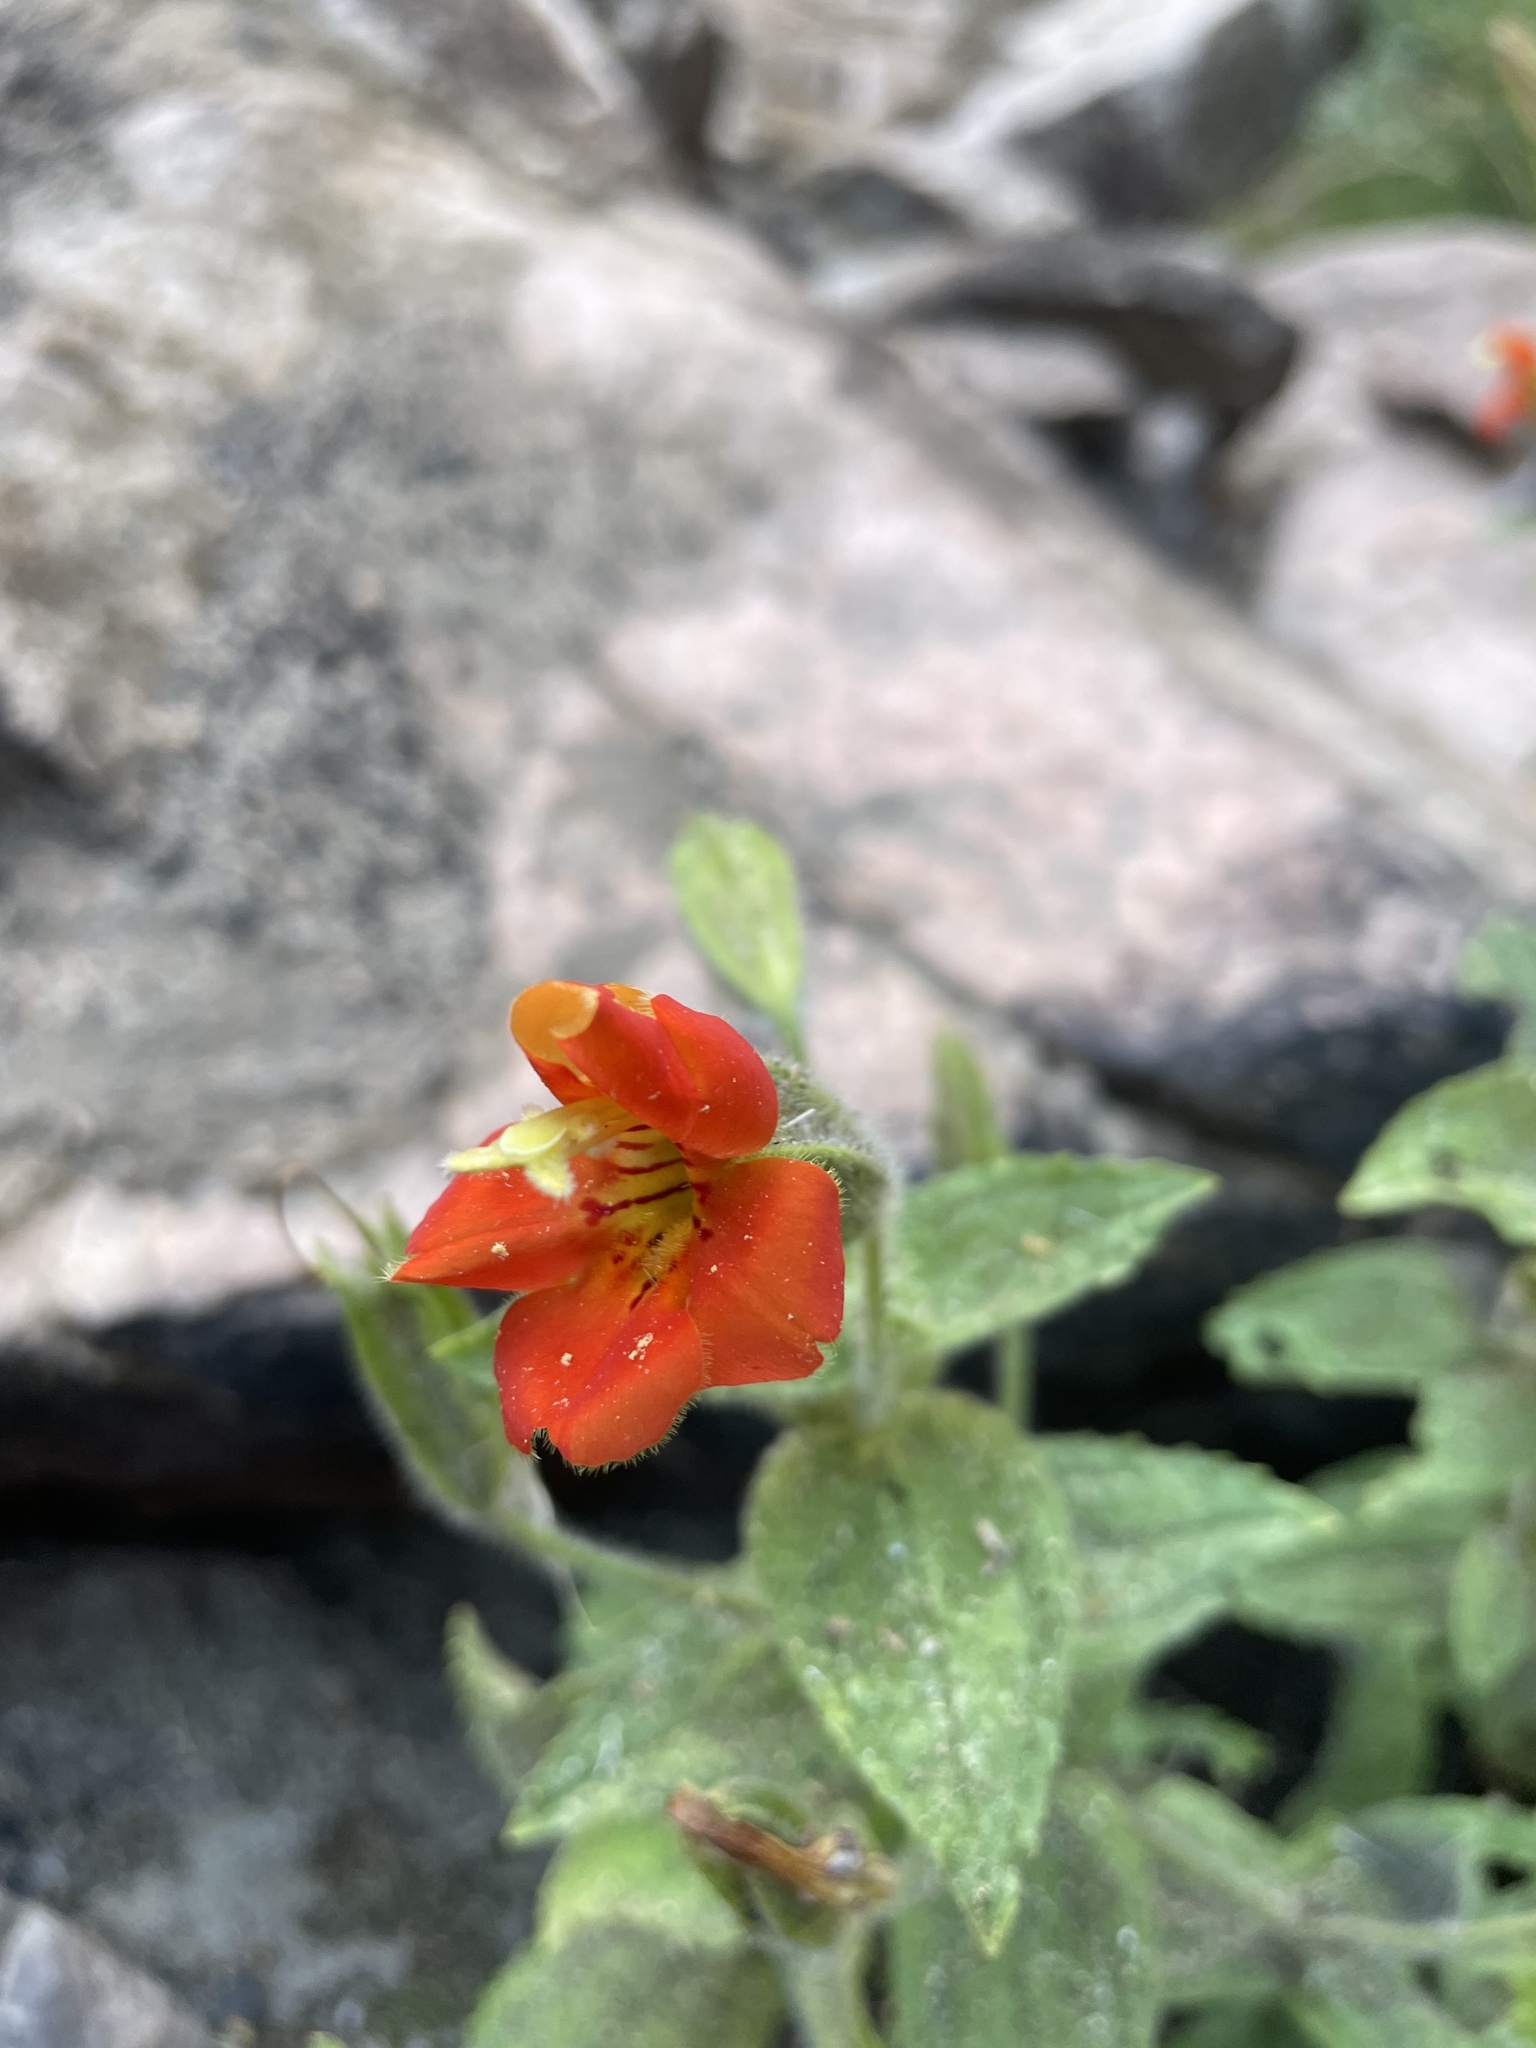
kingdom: Plantae
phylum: Tracheophyta
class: Magnoliopsida
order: Lamiales
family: Phrymaceae
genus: Erythranthe
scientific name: Erythranthe cardinalis
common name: Scarlet monkey-flower
